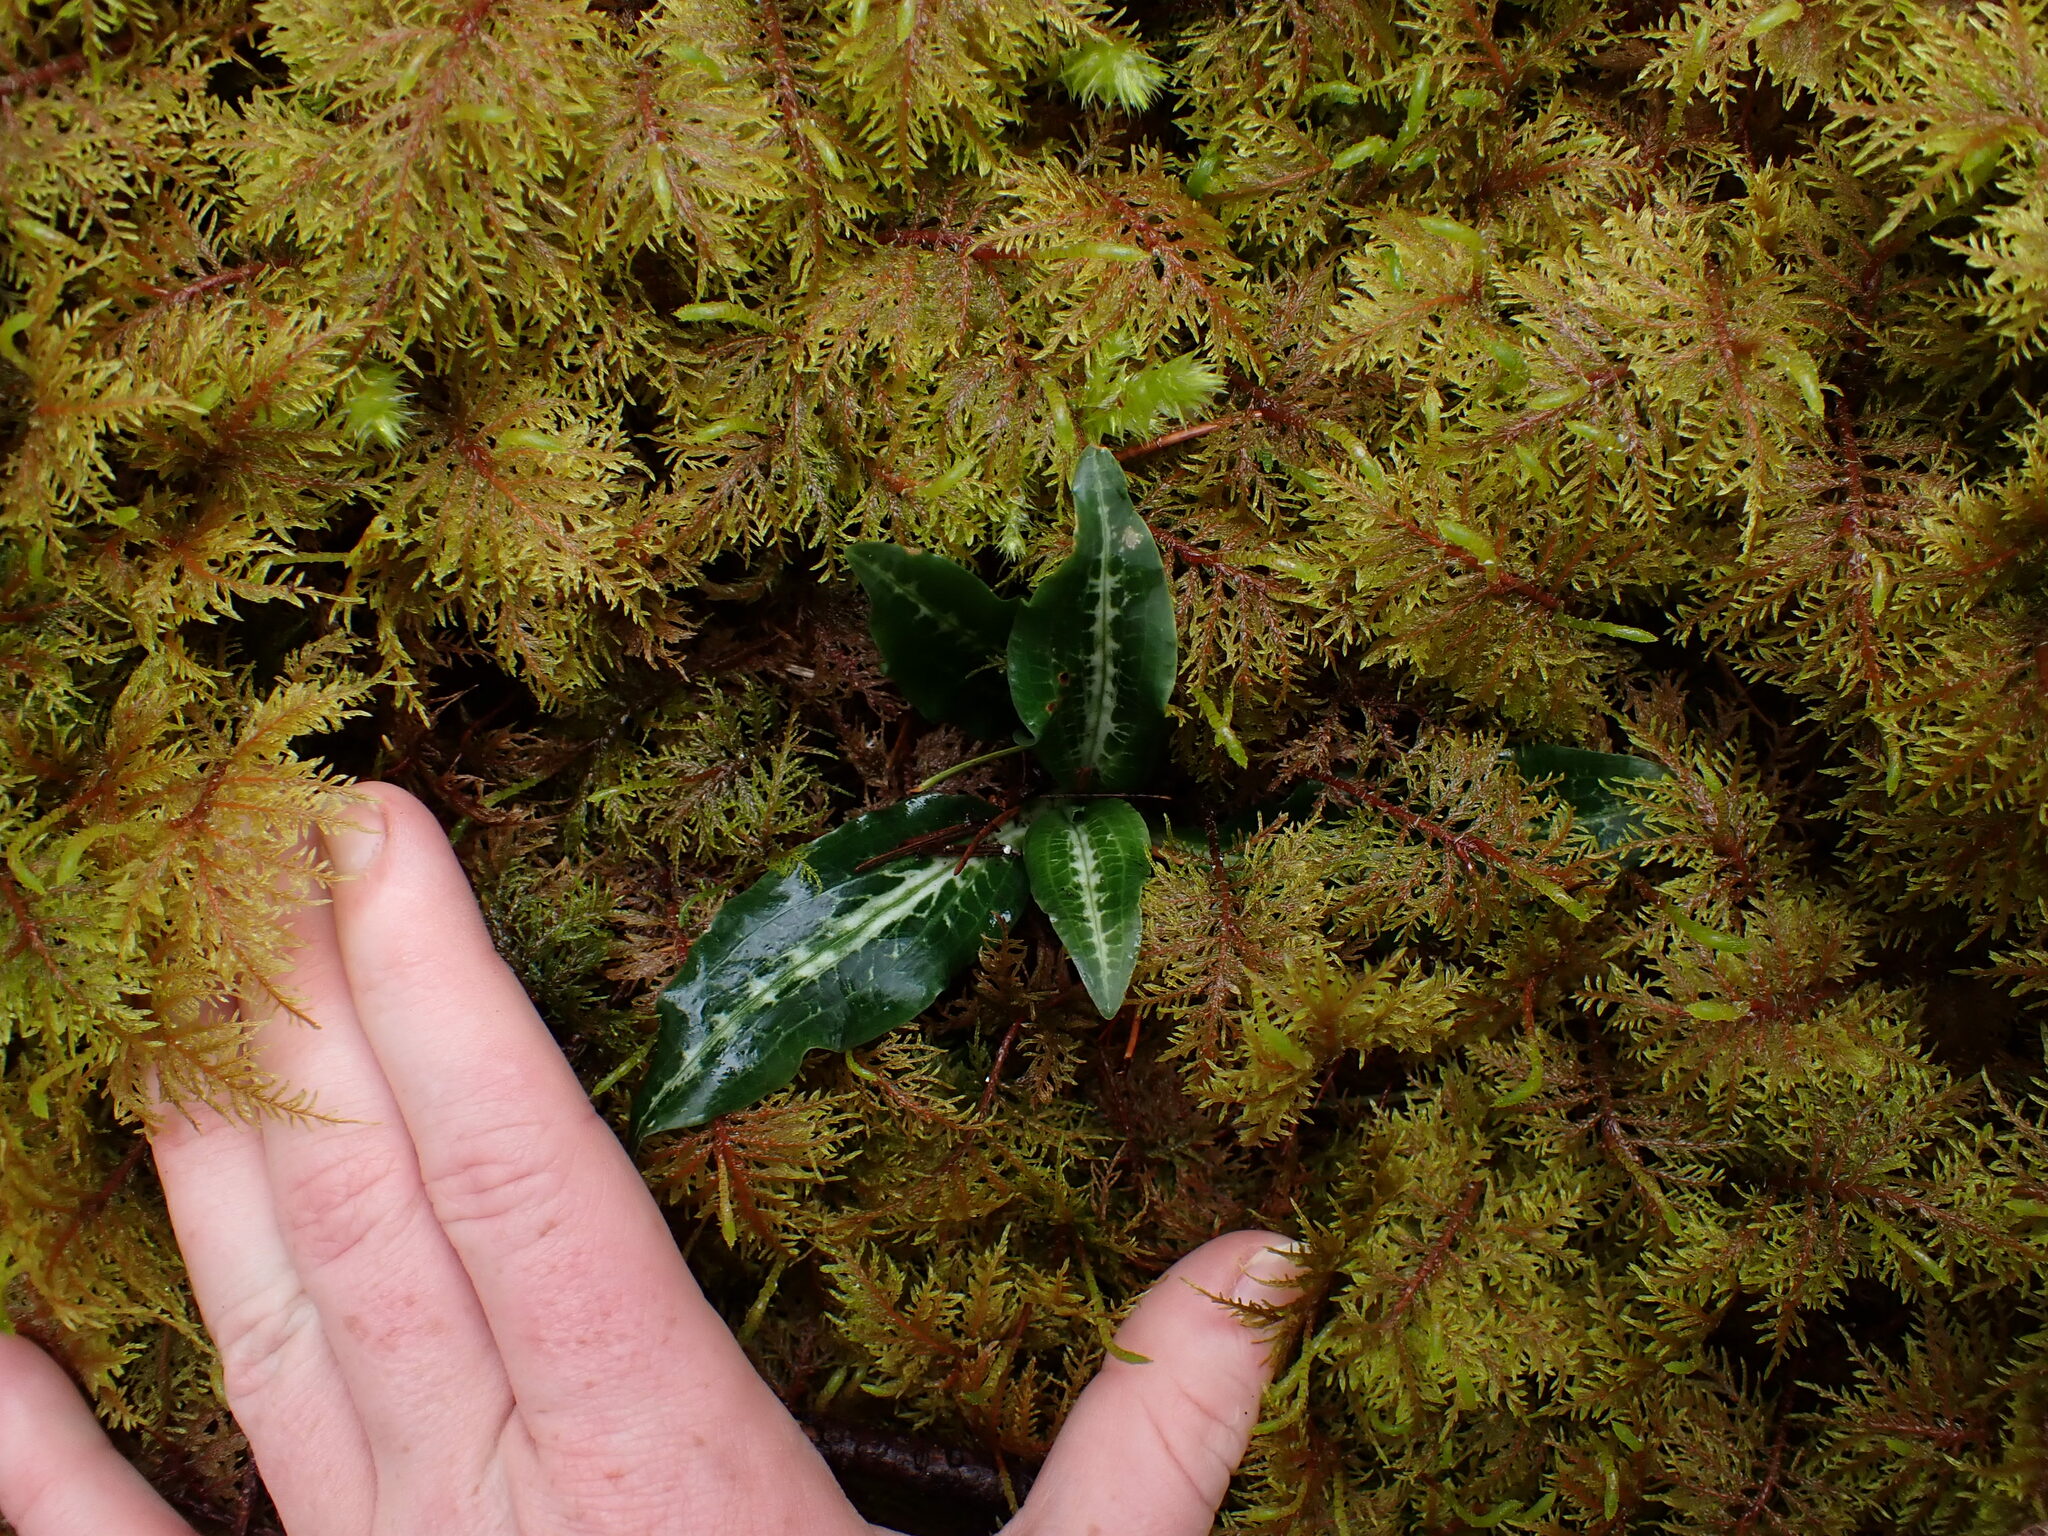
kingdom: Plantae
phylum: Tracheophyta
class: Liliopsida
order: Asparagales
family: Orchidaceae
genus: Goodyera
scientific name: Goodyera oblongifolia
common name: Giant rattlesnake-plantain
